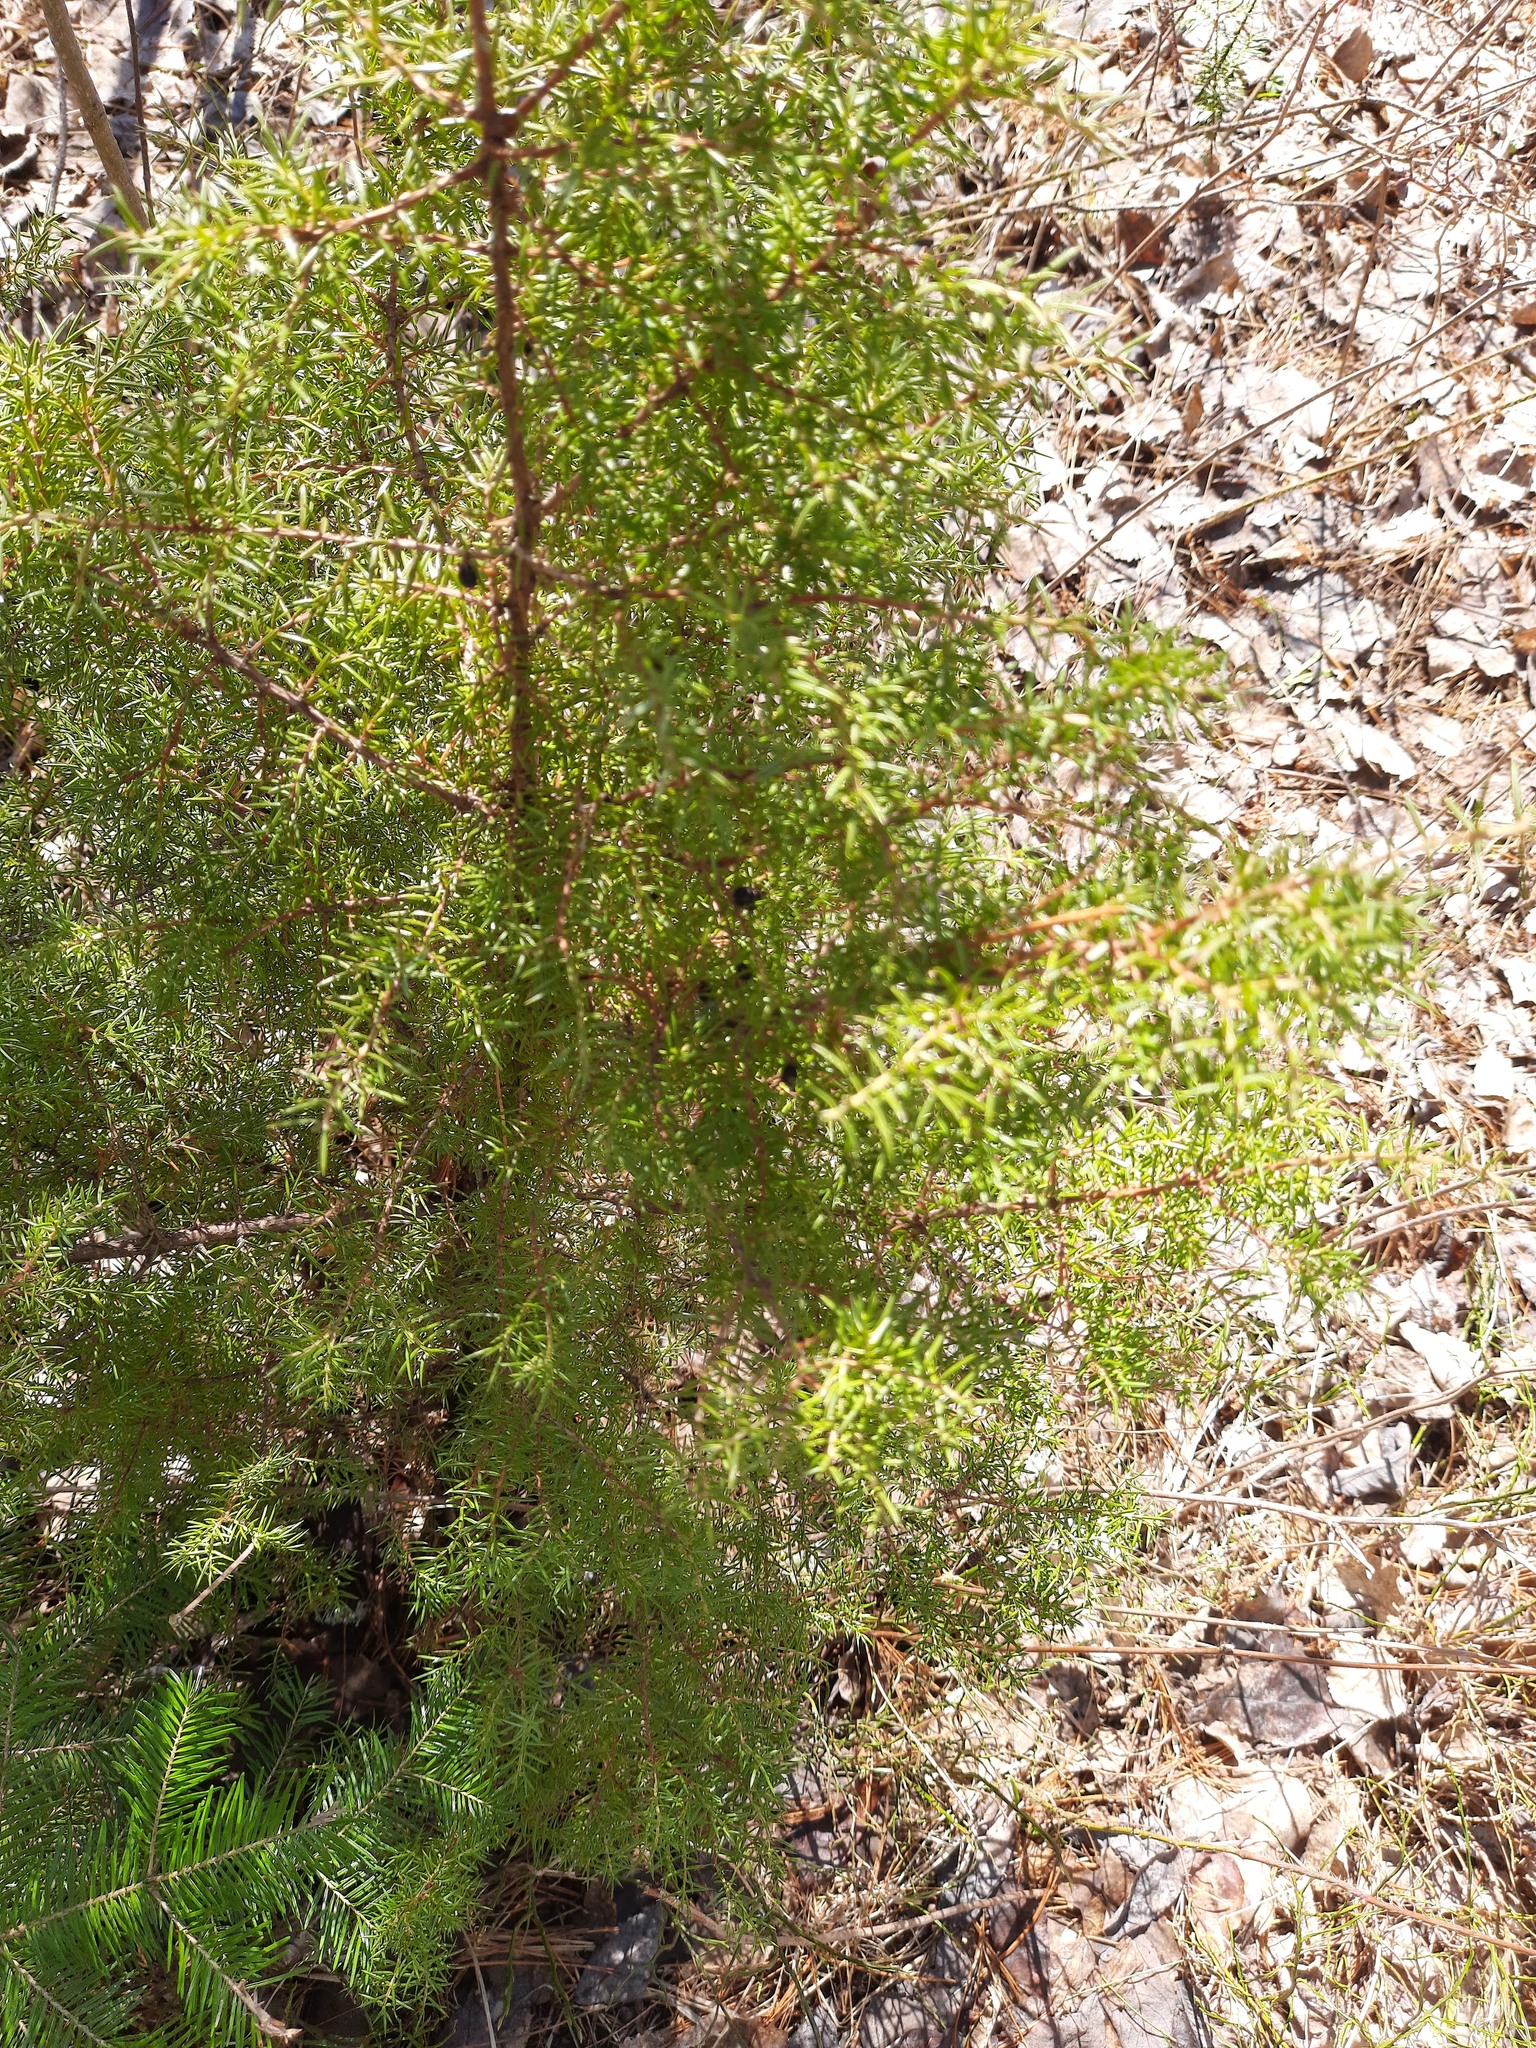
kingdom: Plantae
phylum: Tracheophyta
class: Pinopsida
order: Pinales
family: Cupressaceae
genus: Juniperus
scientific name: Juniperus communis
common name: Common juniper
